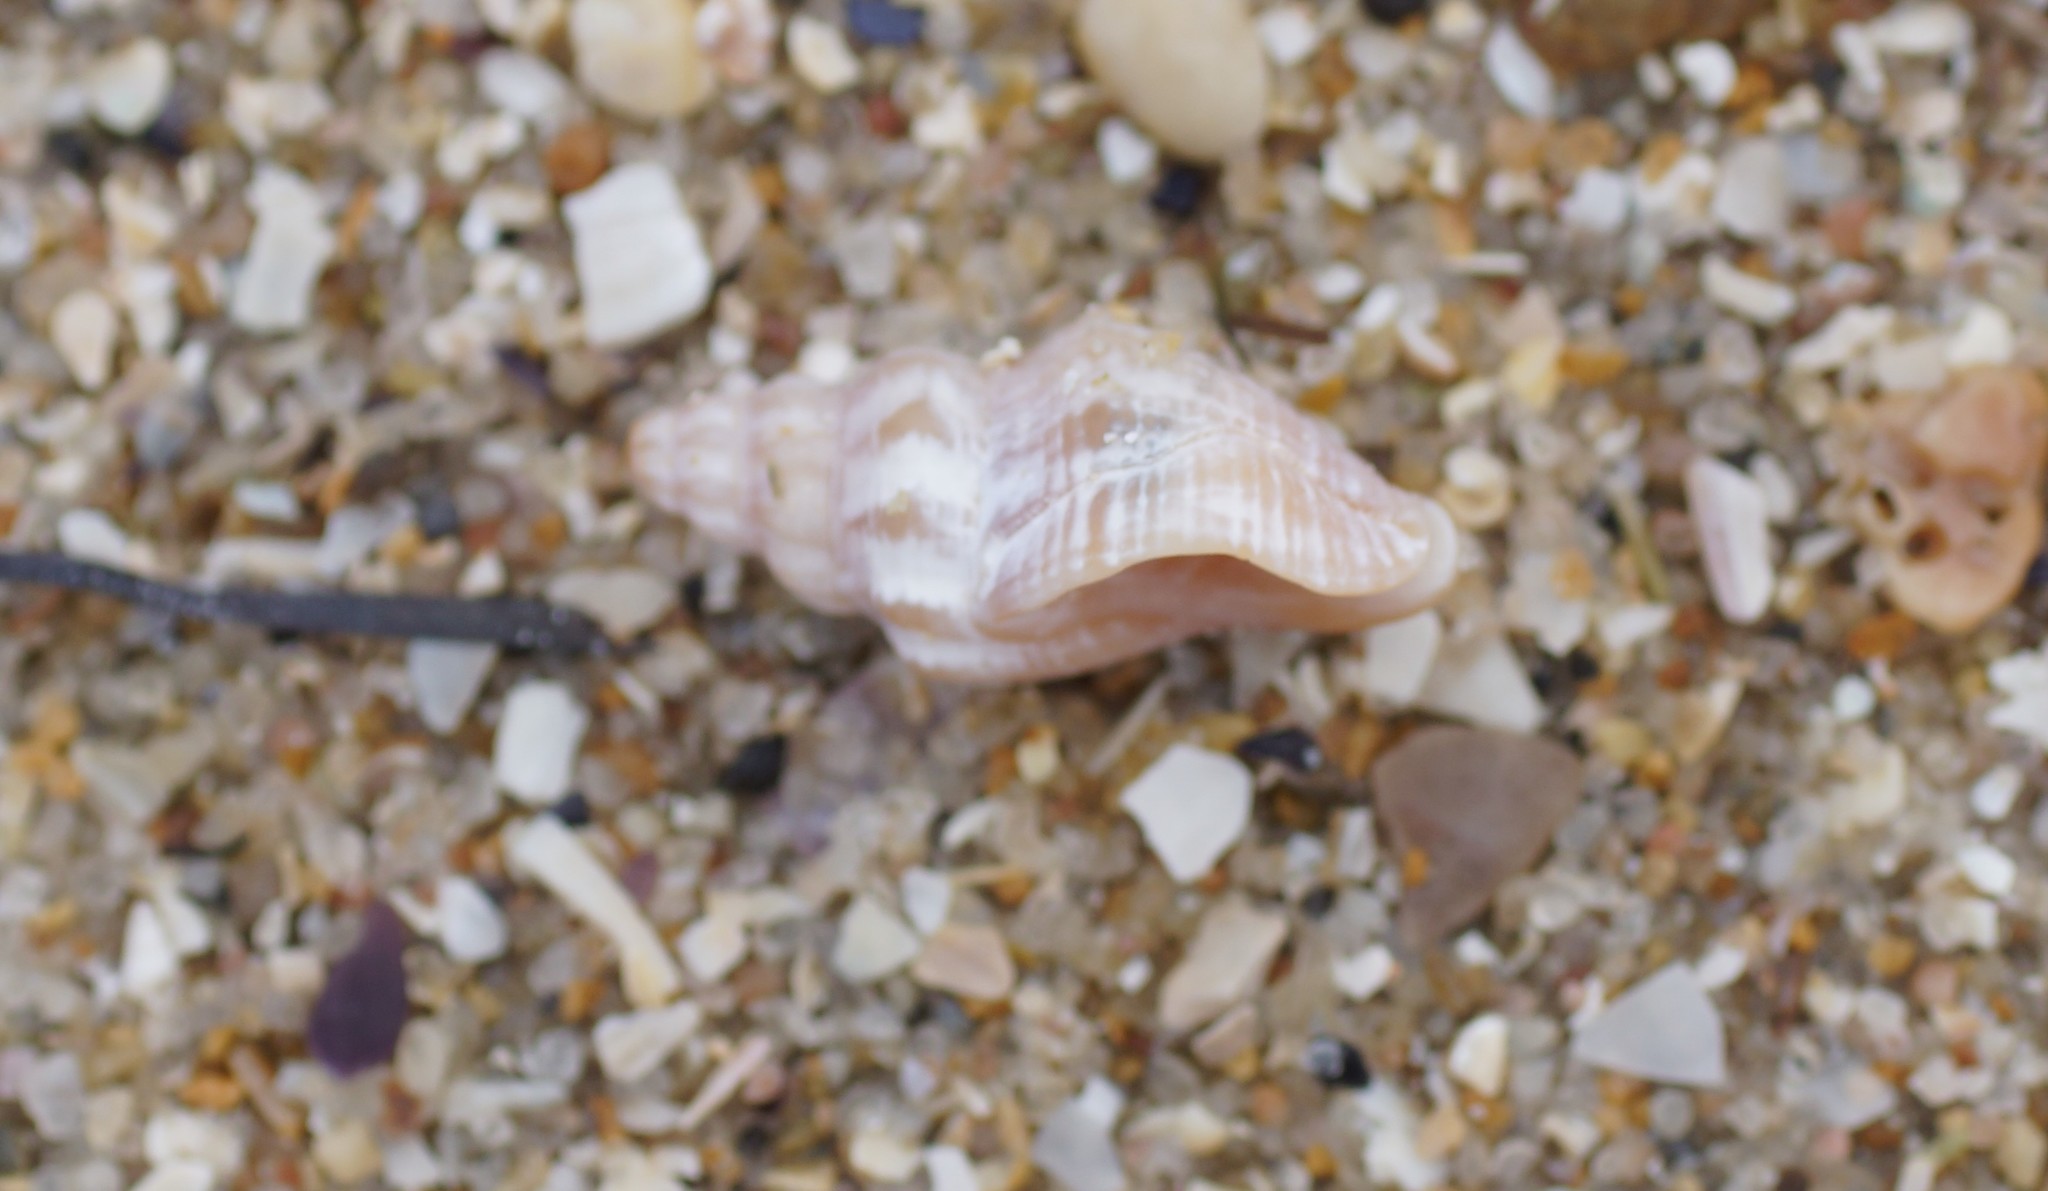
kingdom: Animalia
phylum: Mollusca
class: Gastropoda
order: Neogastropoda
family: Cominellidae
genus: Cominella
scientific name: Cominella eburnea
